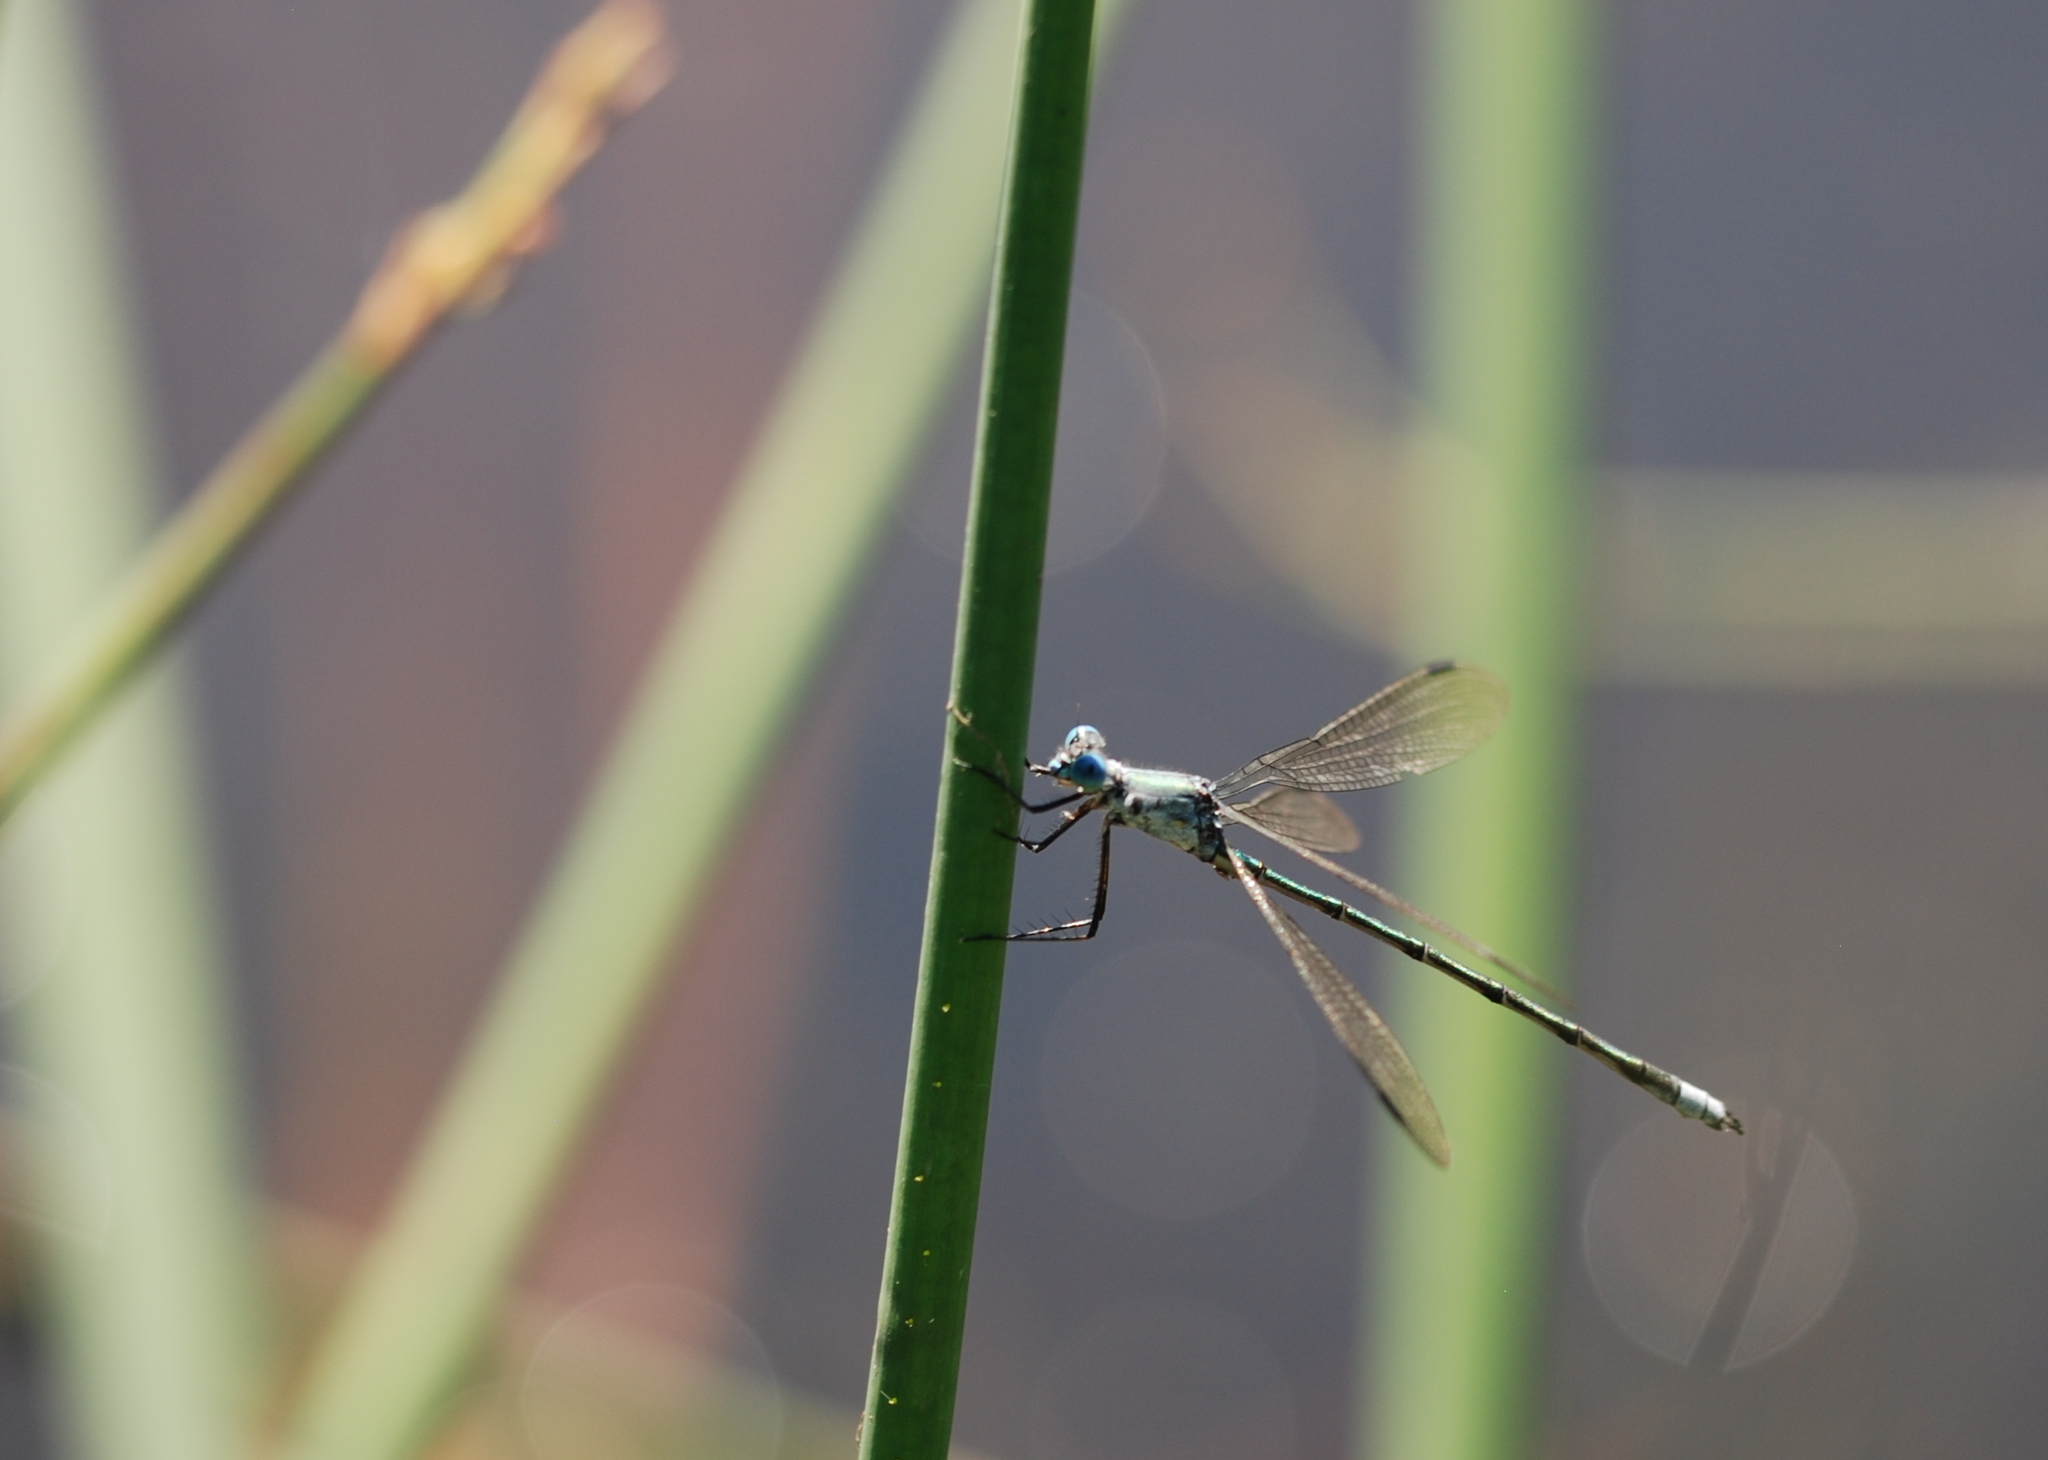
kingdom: Animalia
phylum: Arthropoda
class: Insecta
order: Odonata
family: Lestidae
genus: Lestes
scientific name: Lestes eurinus
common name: Amber-winged spreadwing
